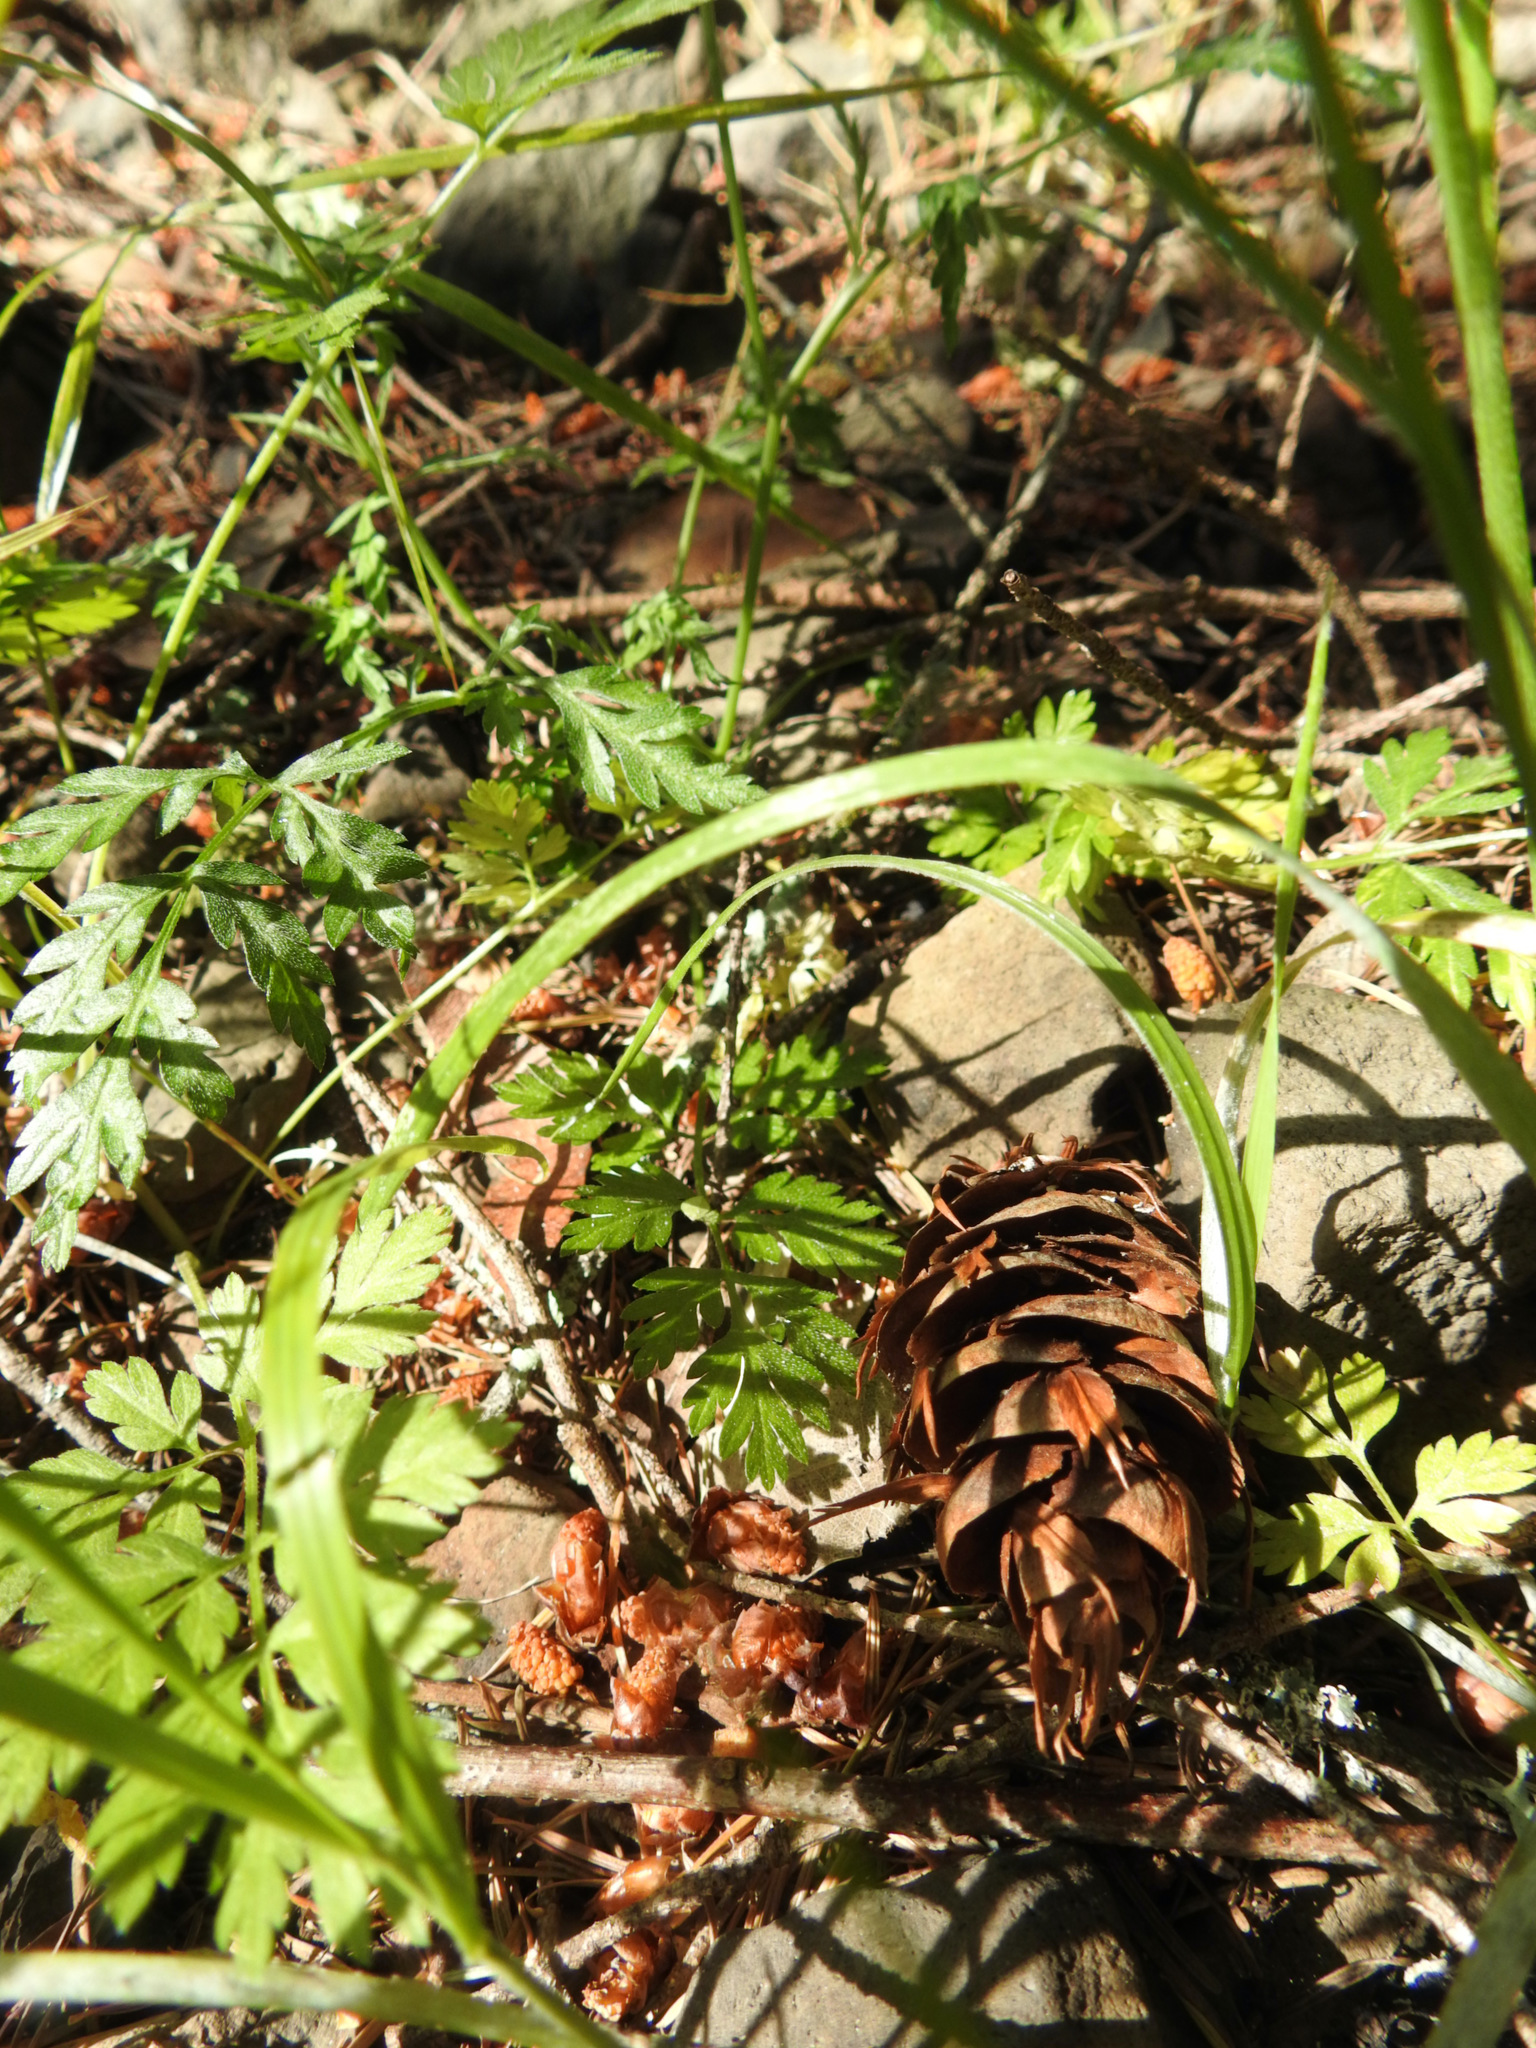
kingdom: Plantae
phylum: Tracheophyta
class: Pinopsida
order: Pinales
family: Pinaceae
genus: Pseudotsuga
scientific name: Pseudotsuga menziesii
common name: Douglas fir
